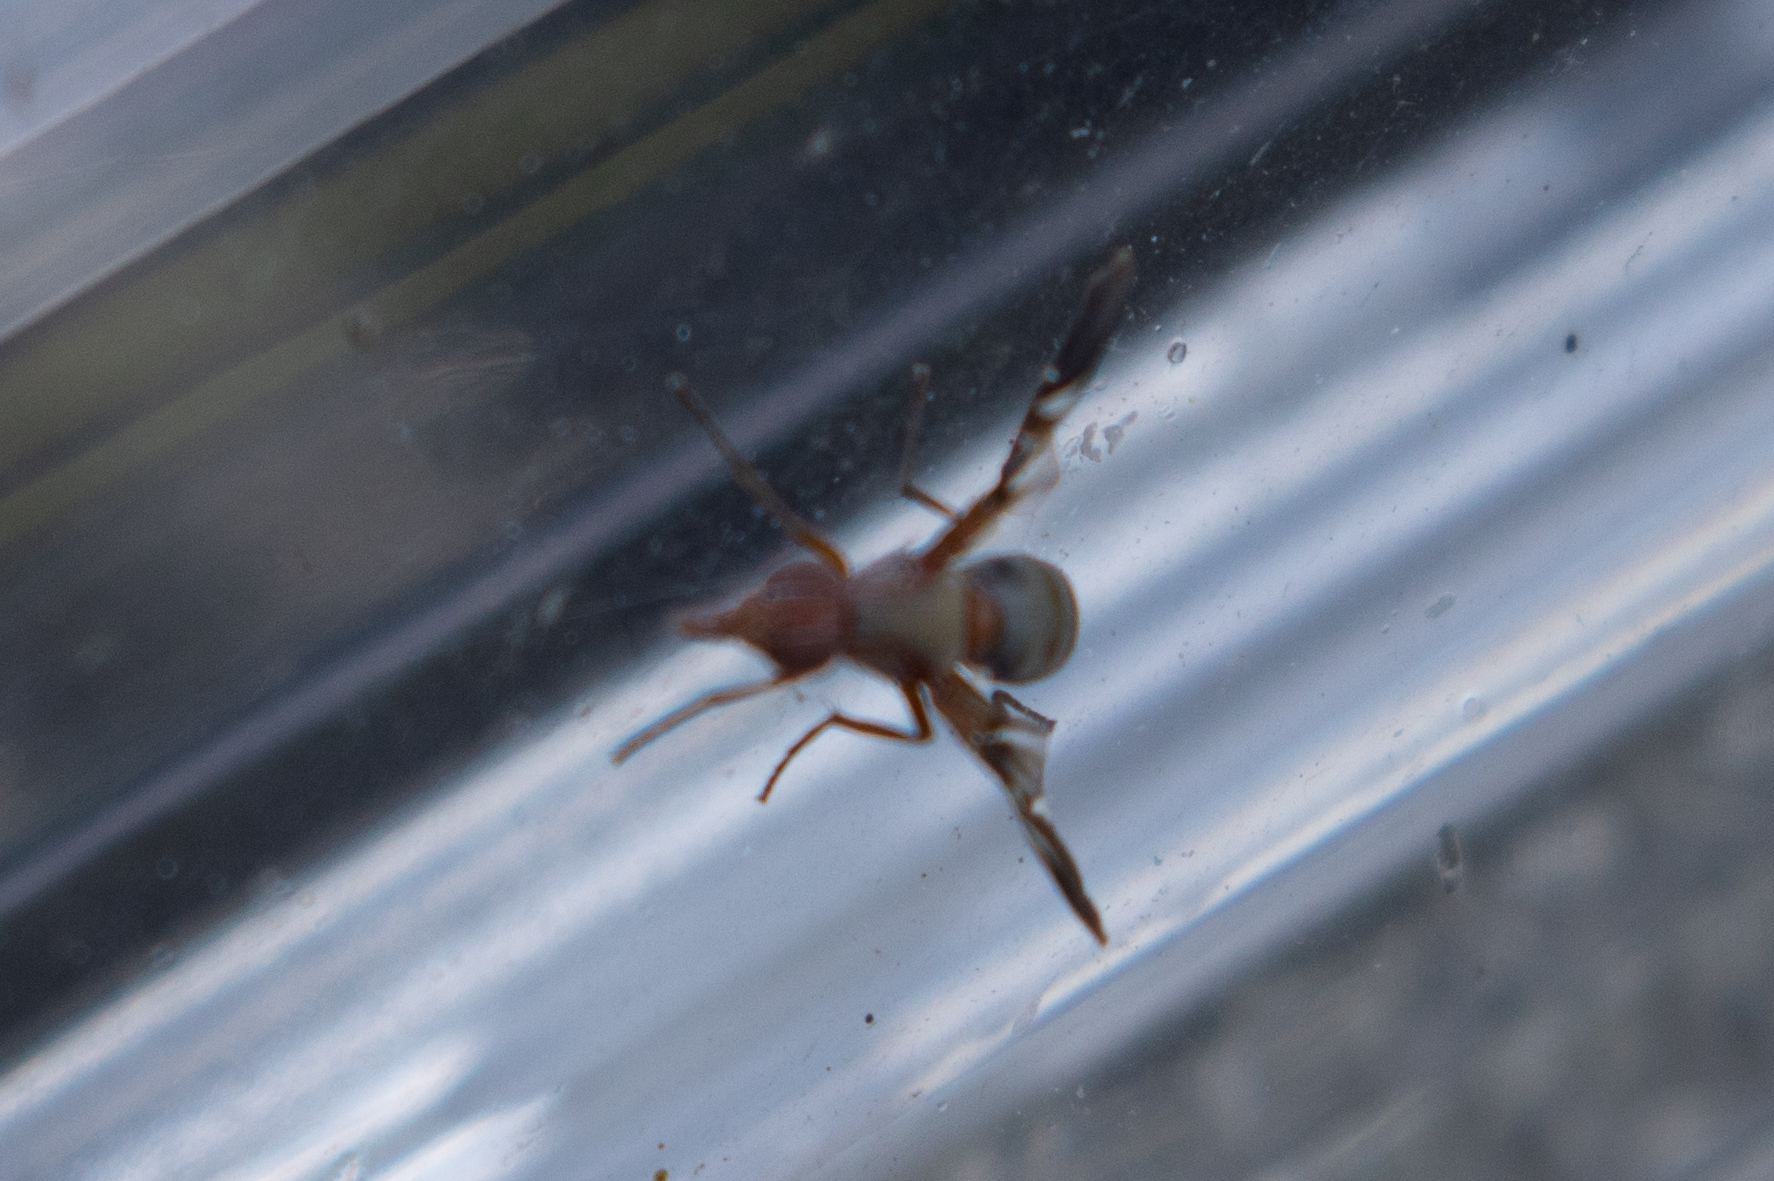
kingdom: Animalia
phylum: Arthropoda
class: Insecta
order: Diptera
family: Ulidiidae
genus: Delphinia
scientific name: Delphinia picta
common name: Common picture-winged fly
